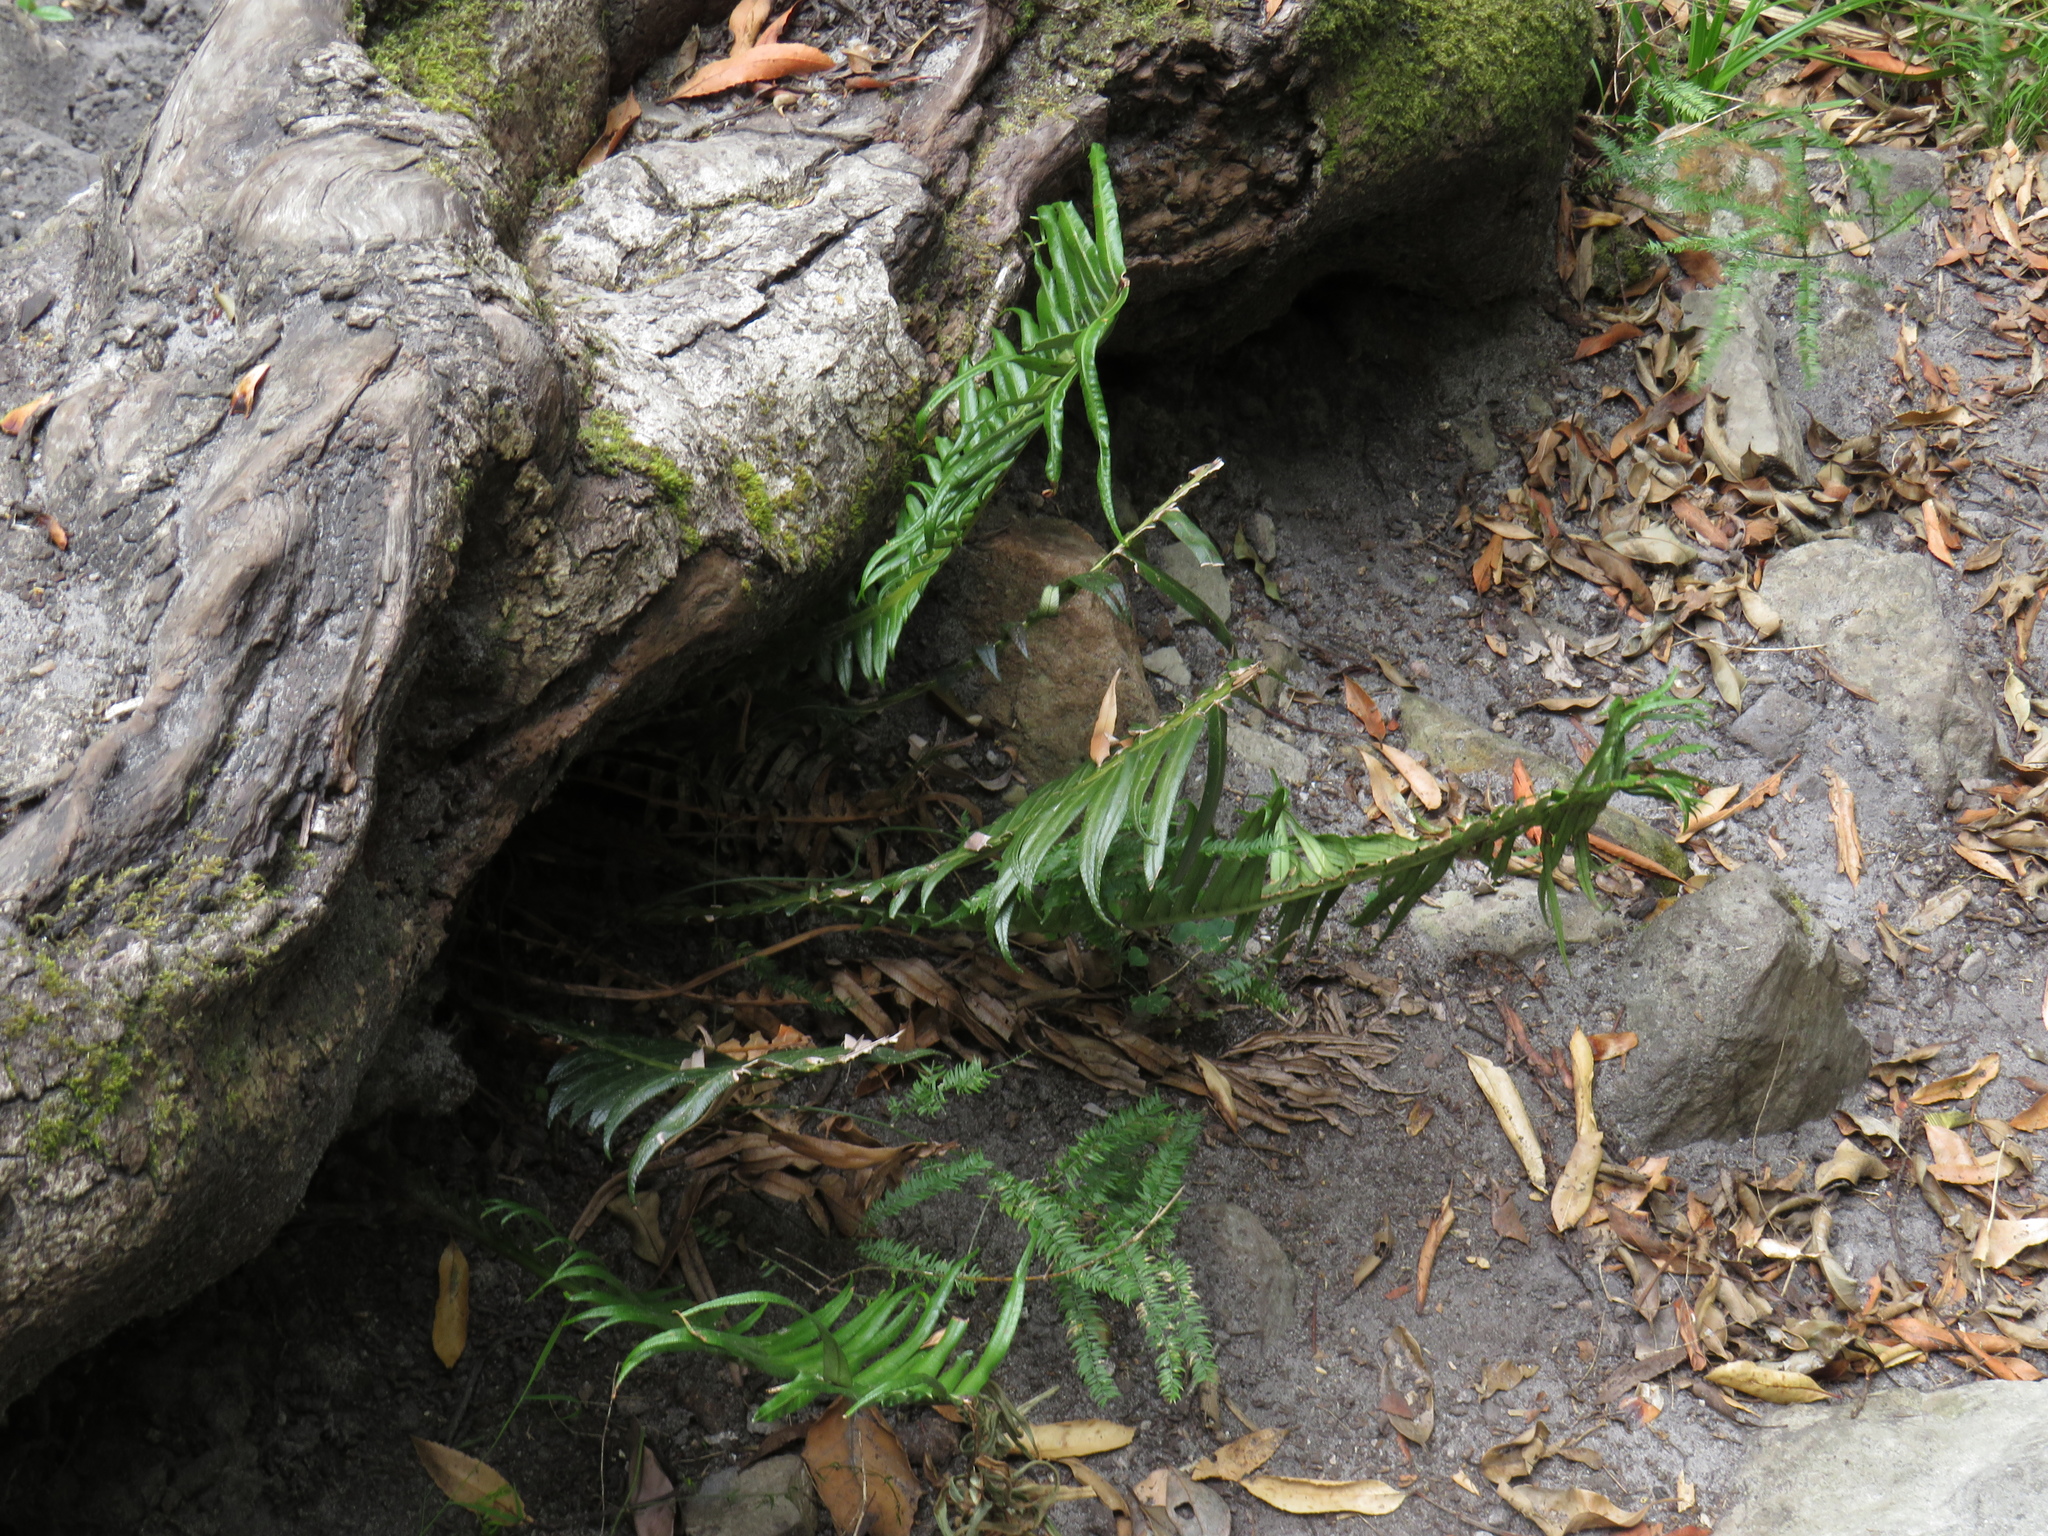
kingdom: Plantae
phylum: Tracheophyta
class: Polypodiopsida
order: Polypodiales
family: Blechnaceae
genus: Lomaridium
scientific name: Lomaridium attenuatum
